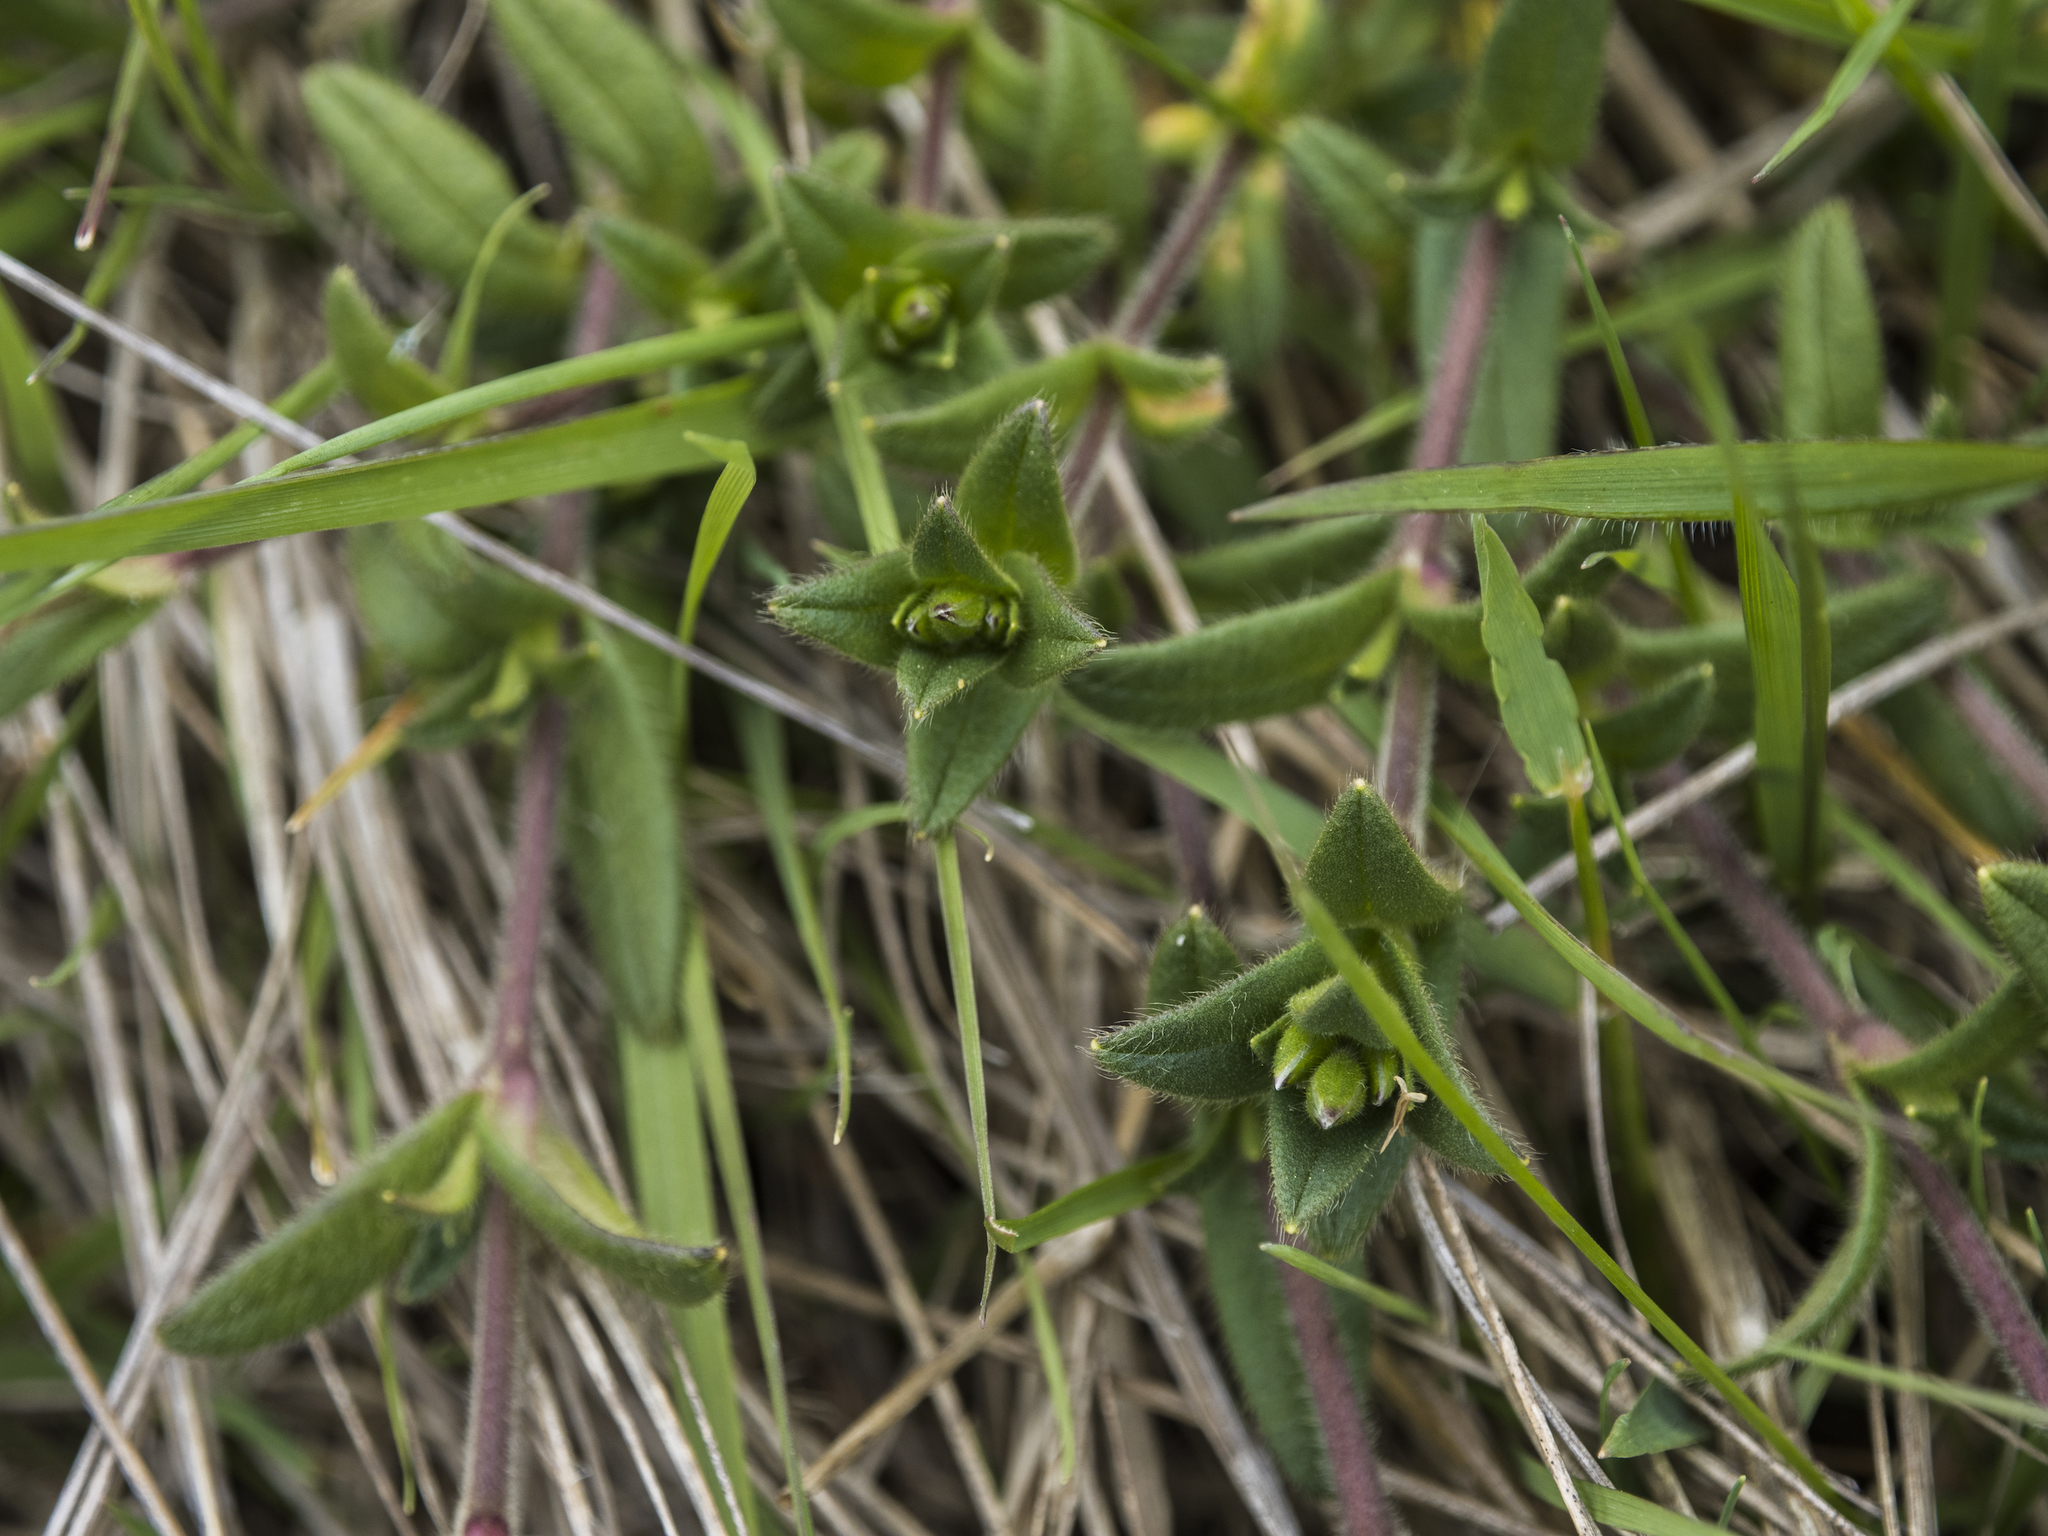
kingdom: Plantae
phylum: Tracheophyta
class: Magnoliopsida
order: Caryophyllales
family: Caryophyllaceae
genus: Cerastium
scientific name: Cerastium fontanum
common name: Common mouse-ear
